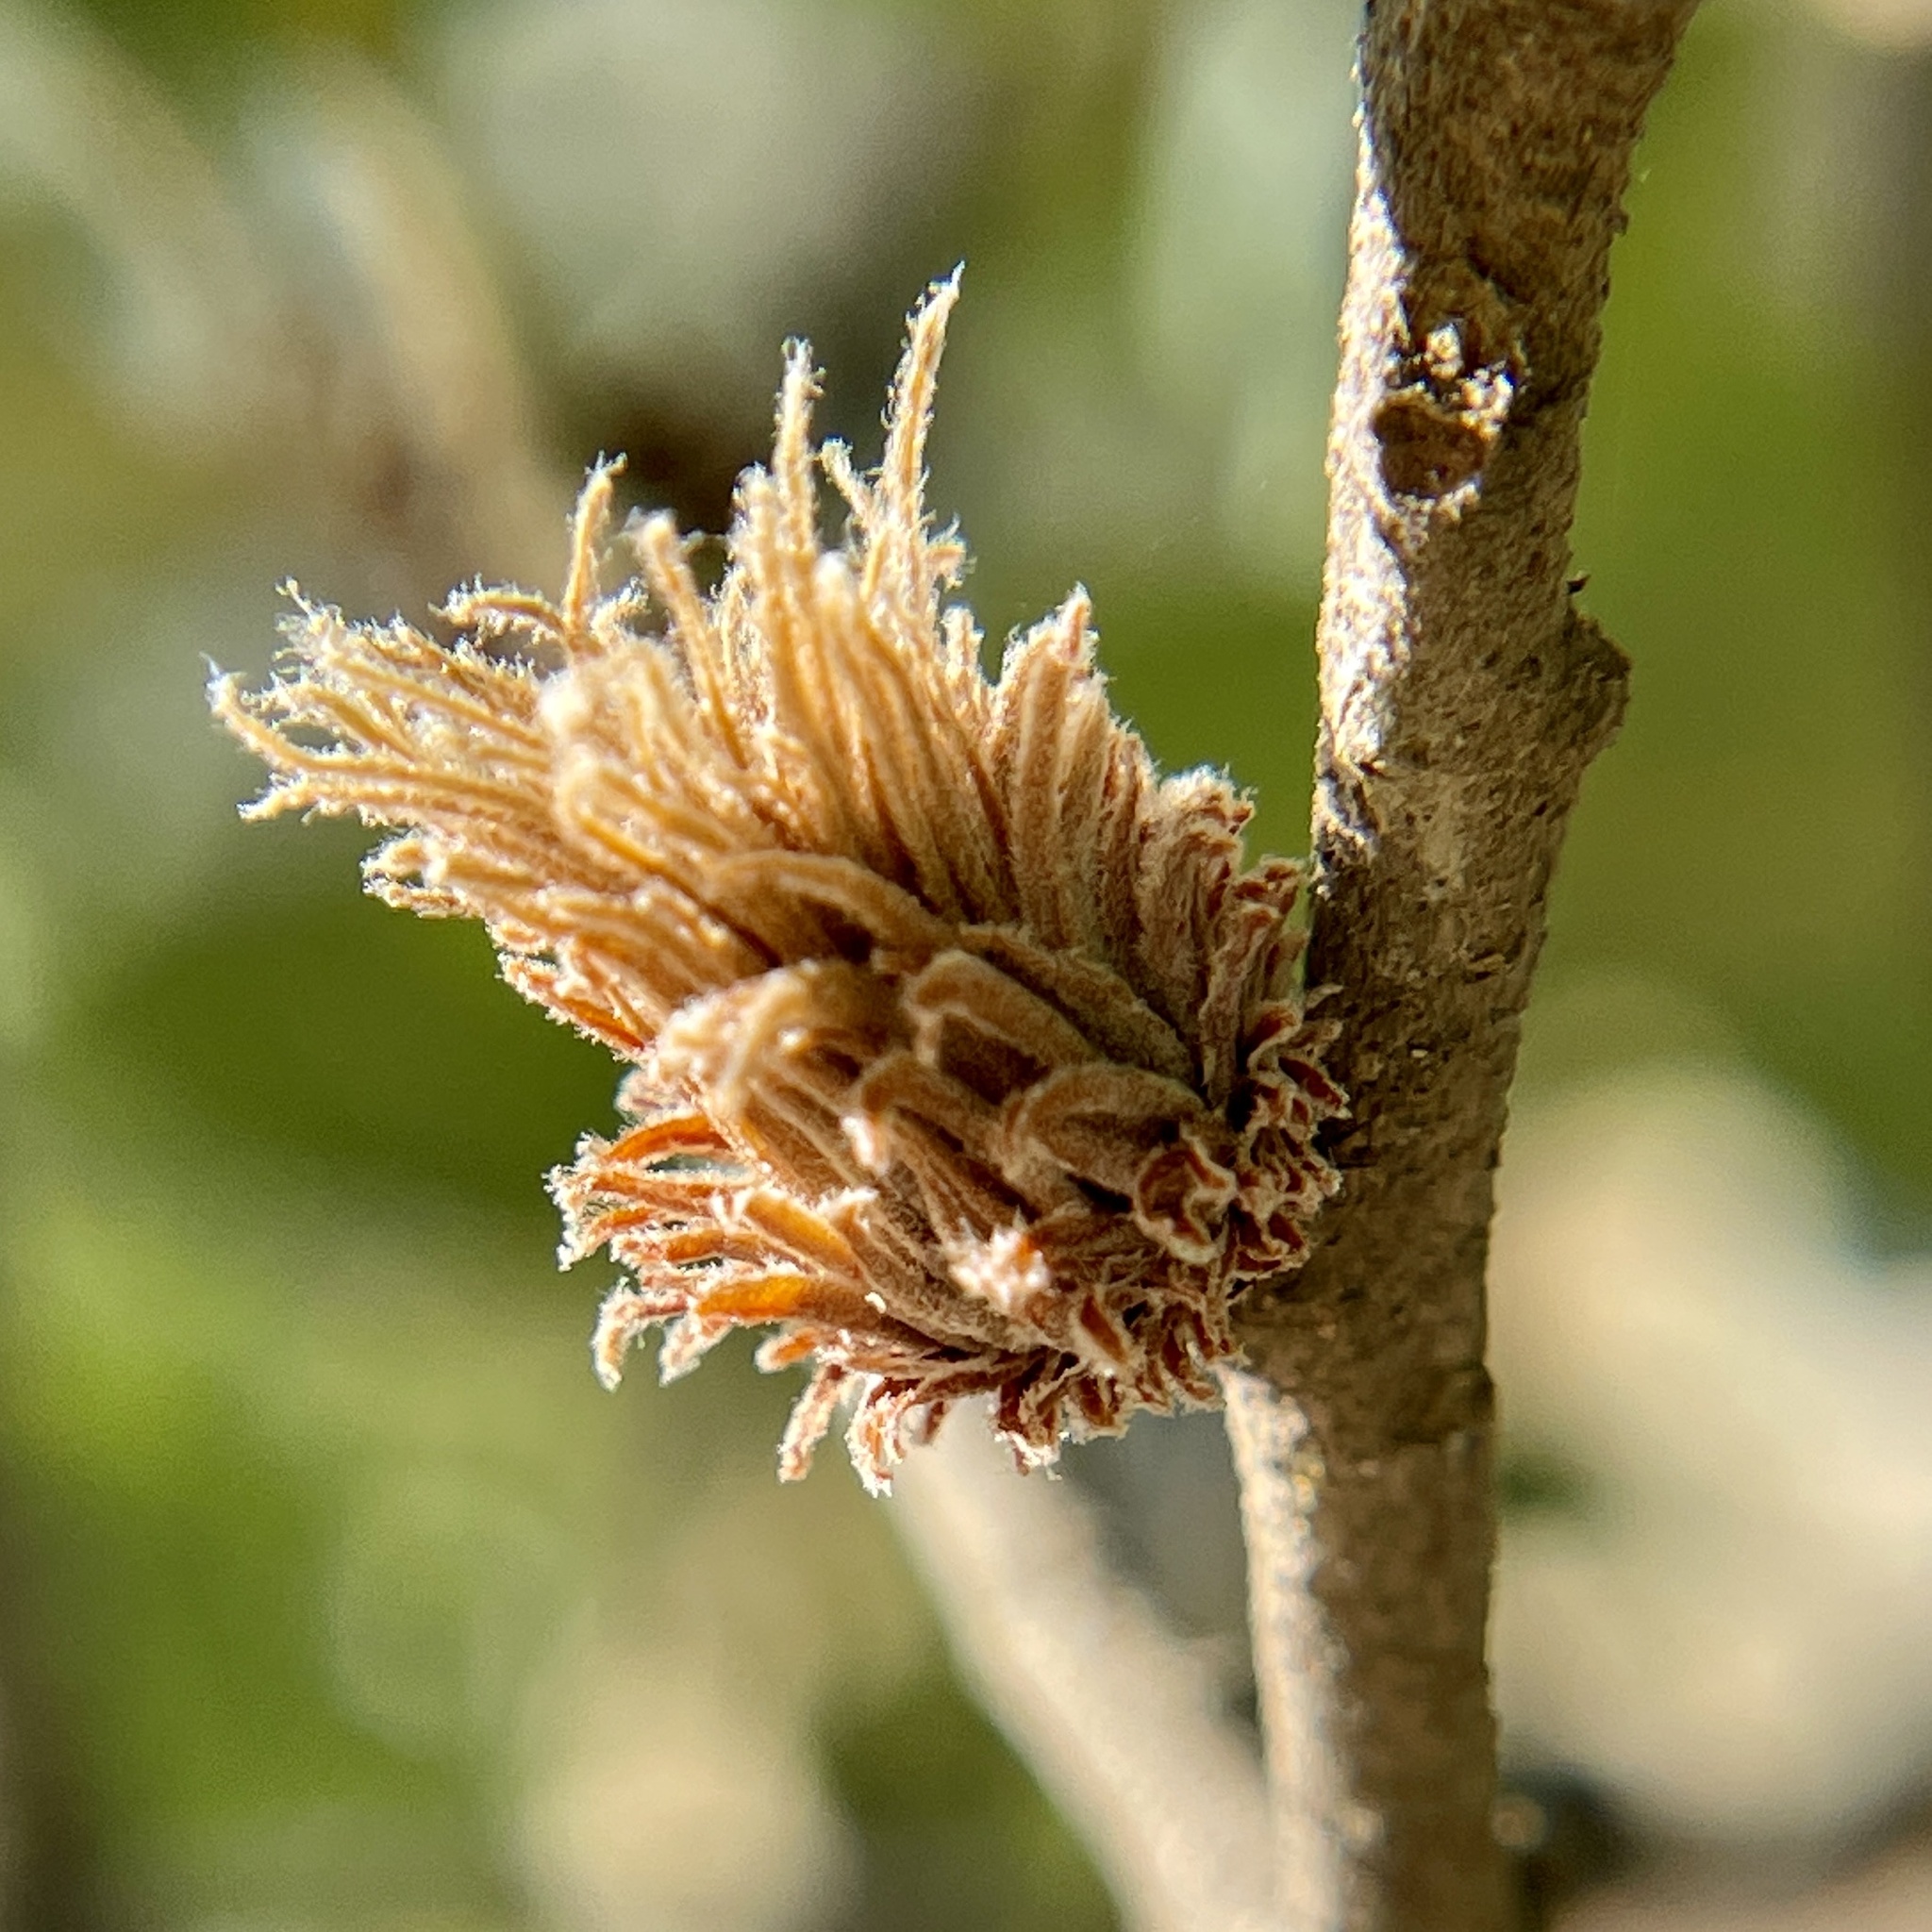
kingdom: Animalia
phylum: Arthropoda
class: Insecta
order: Hymenoptera
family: Cynipidae
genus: Andricus
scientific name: Andricus quercusfoliatus
